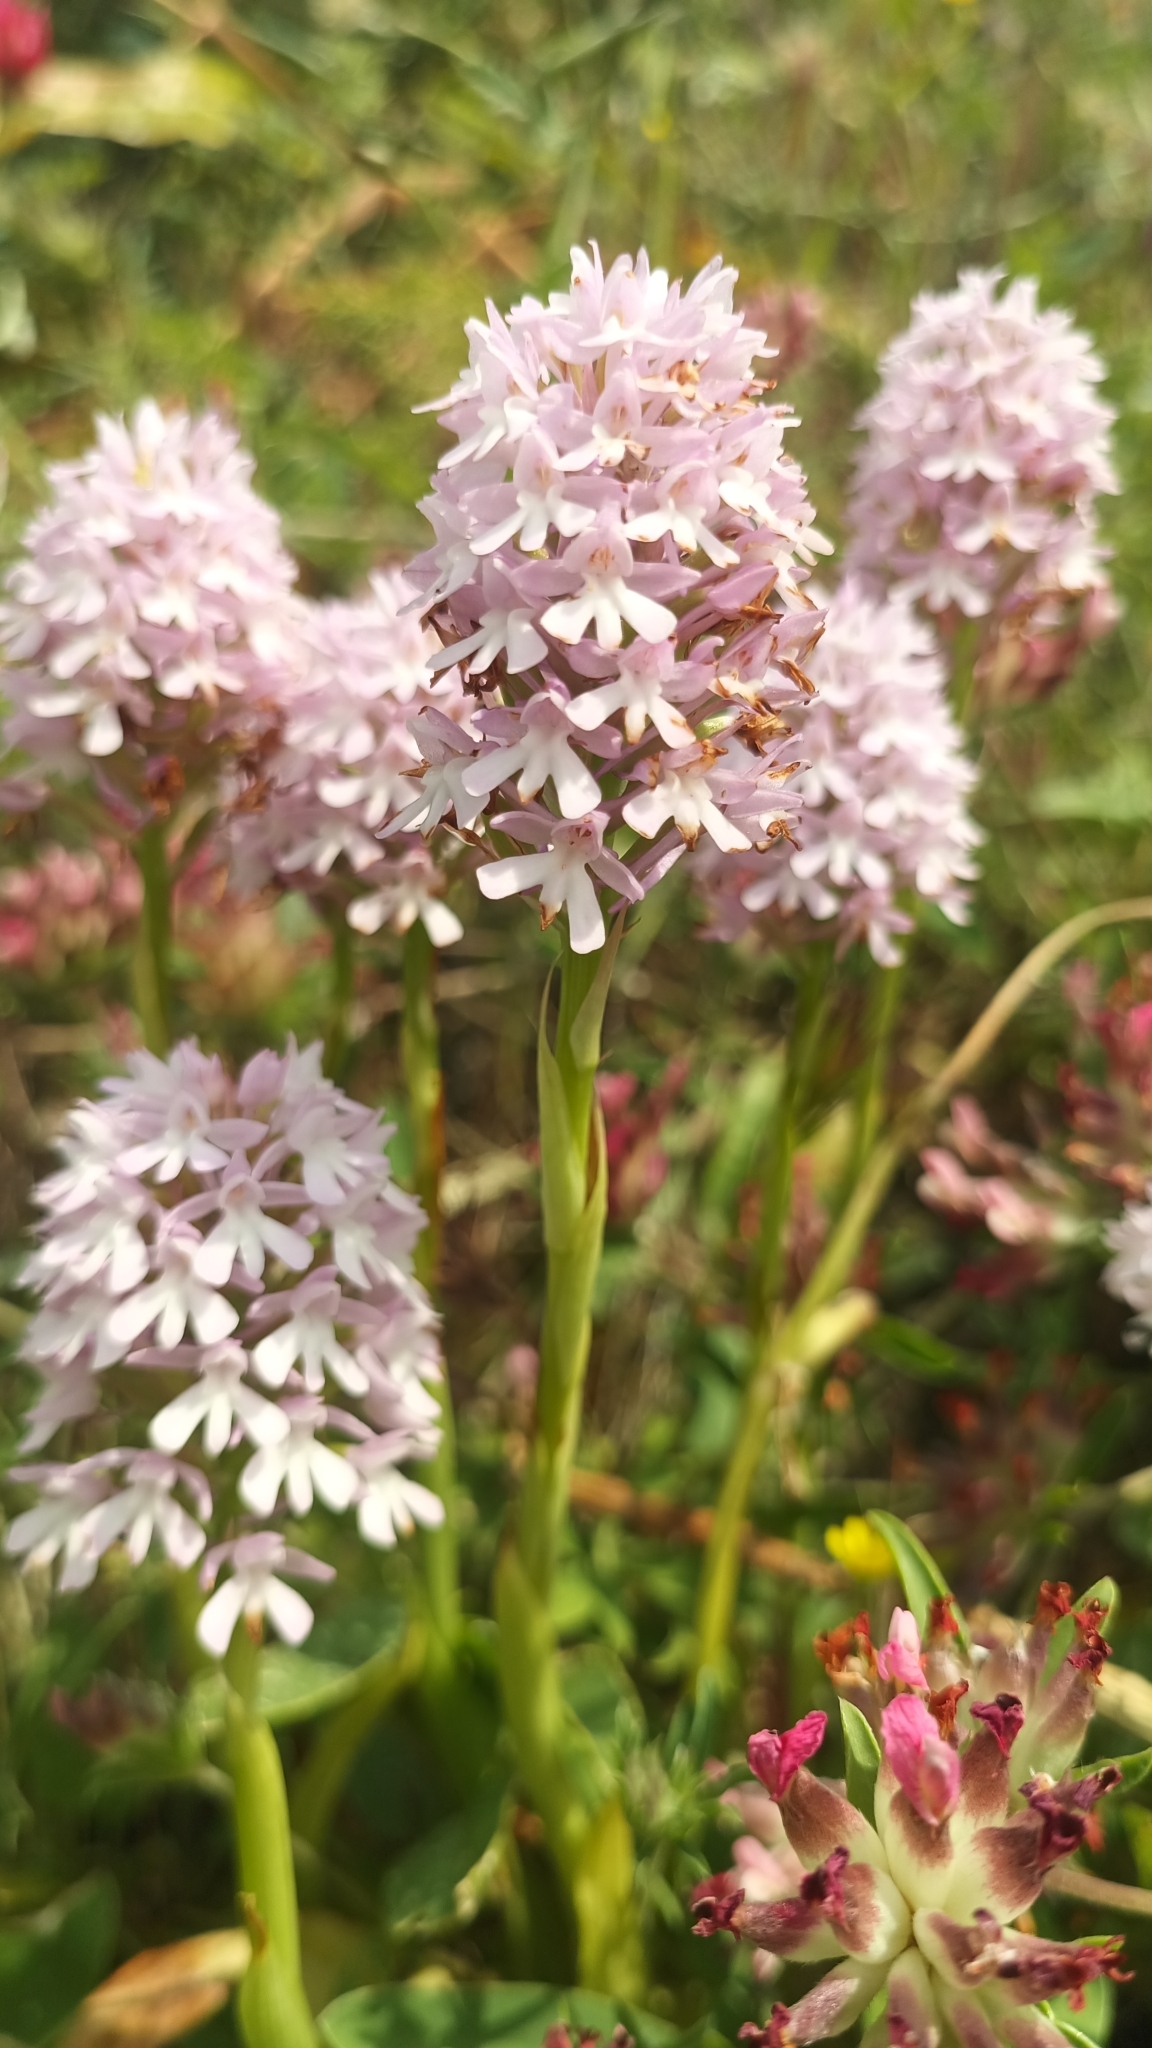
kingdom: Plantae
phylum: Tracheophyta
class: Liliopsida
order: Asparagales
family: Orchidaceae
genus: Anacamptis
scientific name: Anacamptis pyramidalis
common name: Pyramidal orchid
